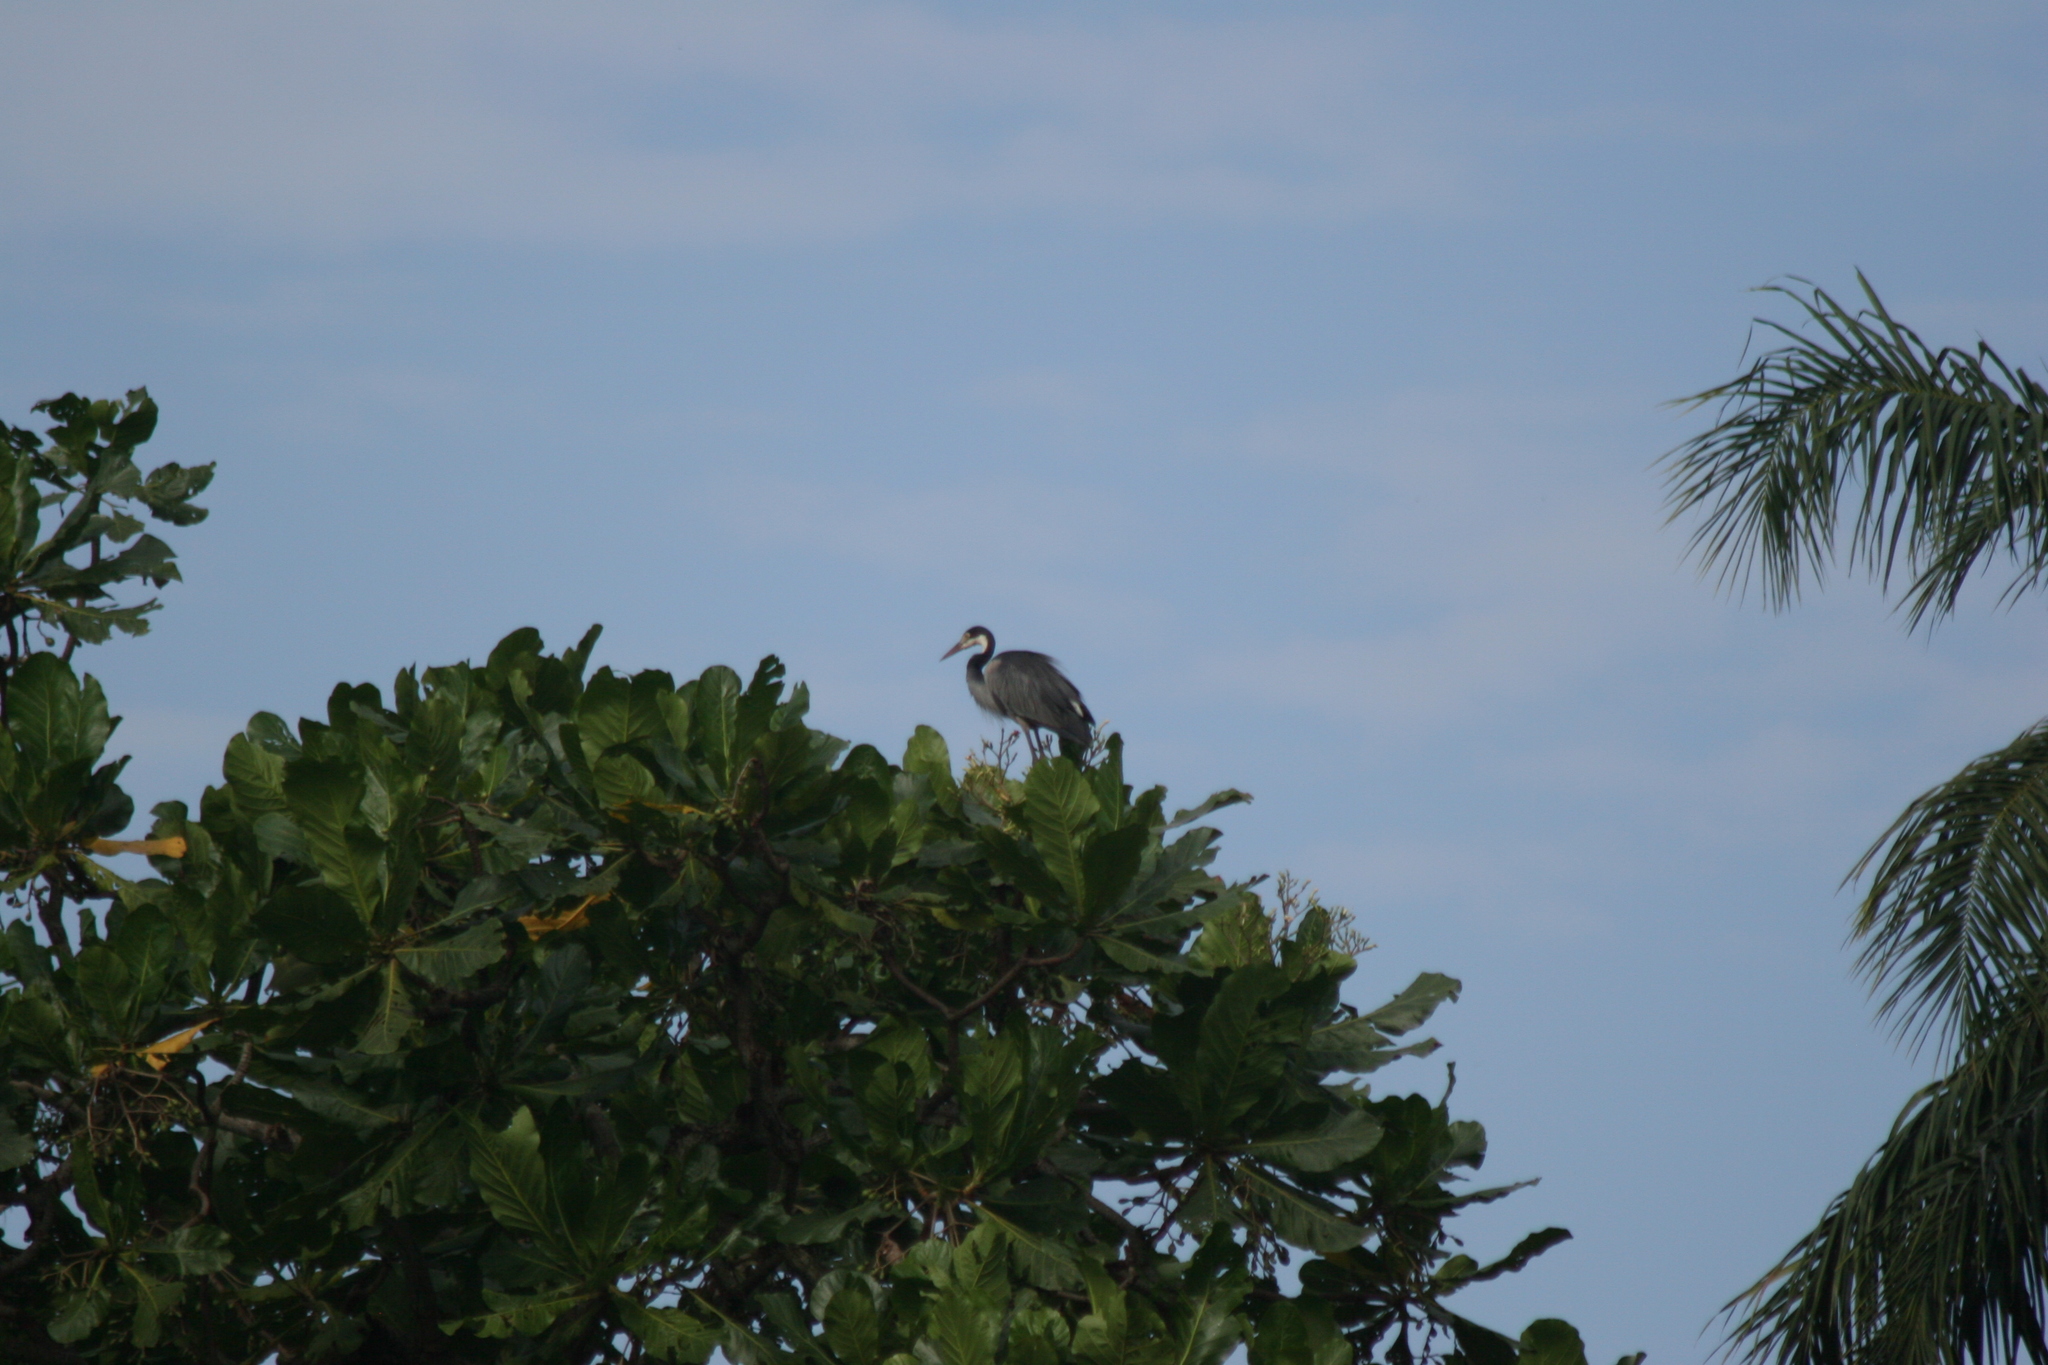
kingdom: Animalia
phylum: Chordata
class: Aves
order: Pelecaniformes
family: Ardeidae
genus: Ardea
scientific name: Ardea melanocephala
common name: Black-headed heron
